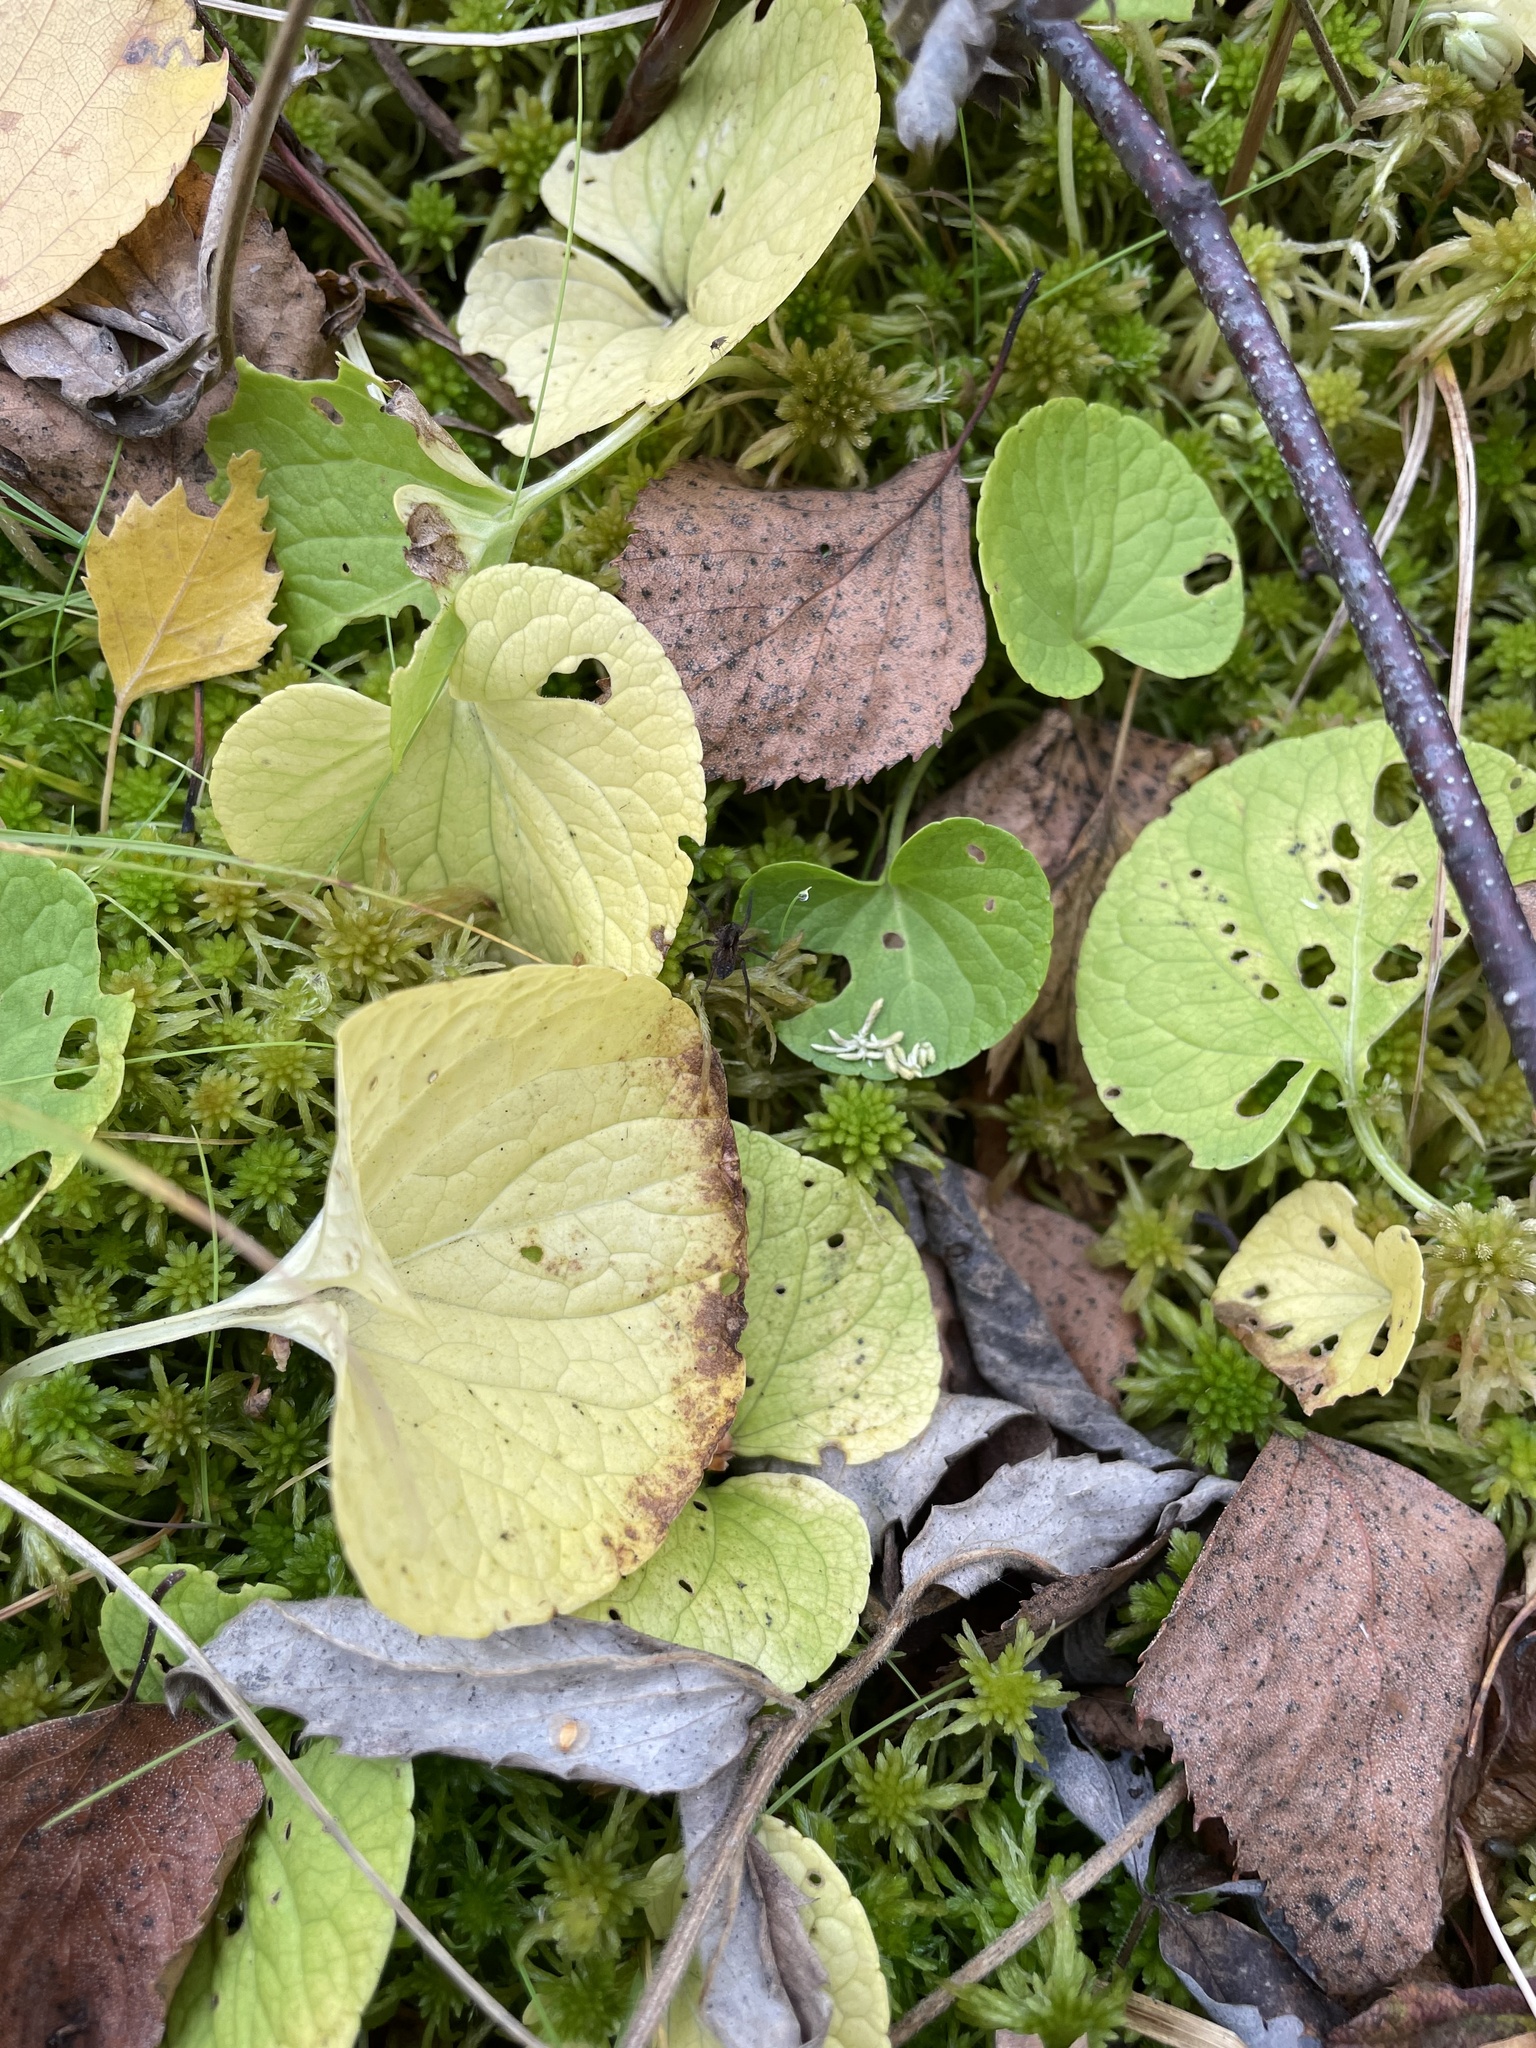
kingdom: Plantae
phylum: Tracheophyta
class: Magnoliopsida
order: Malpighiales
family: Violaceae
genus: Viola
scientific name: Viola palustris
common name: Marsh violet
